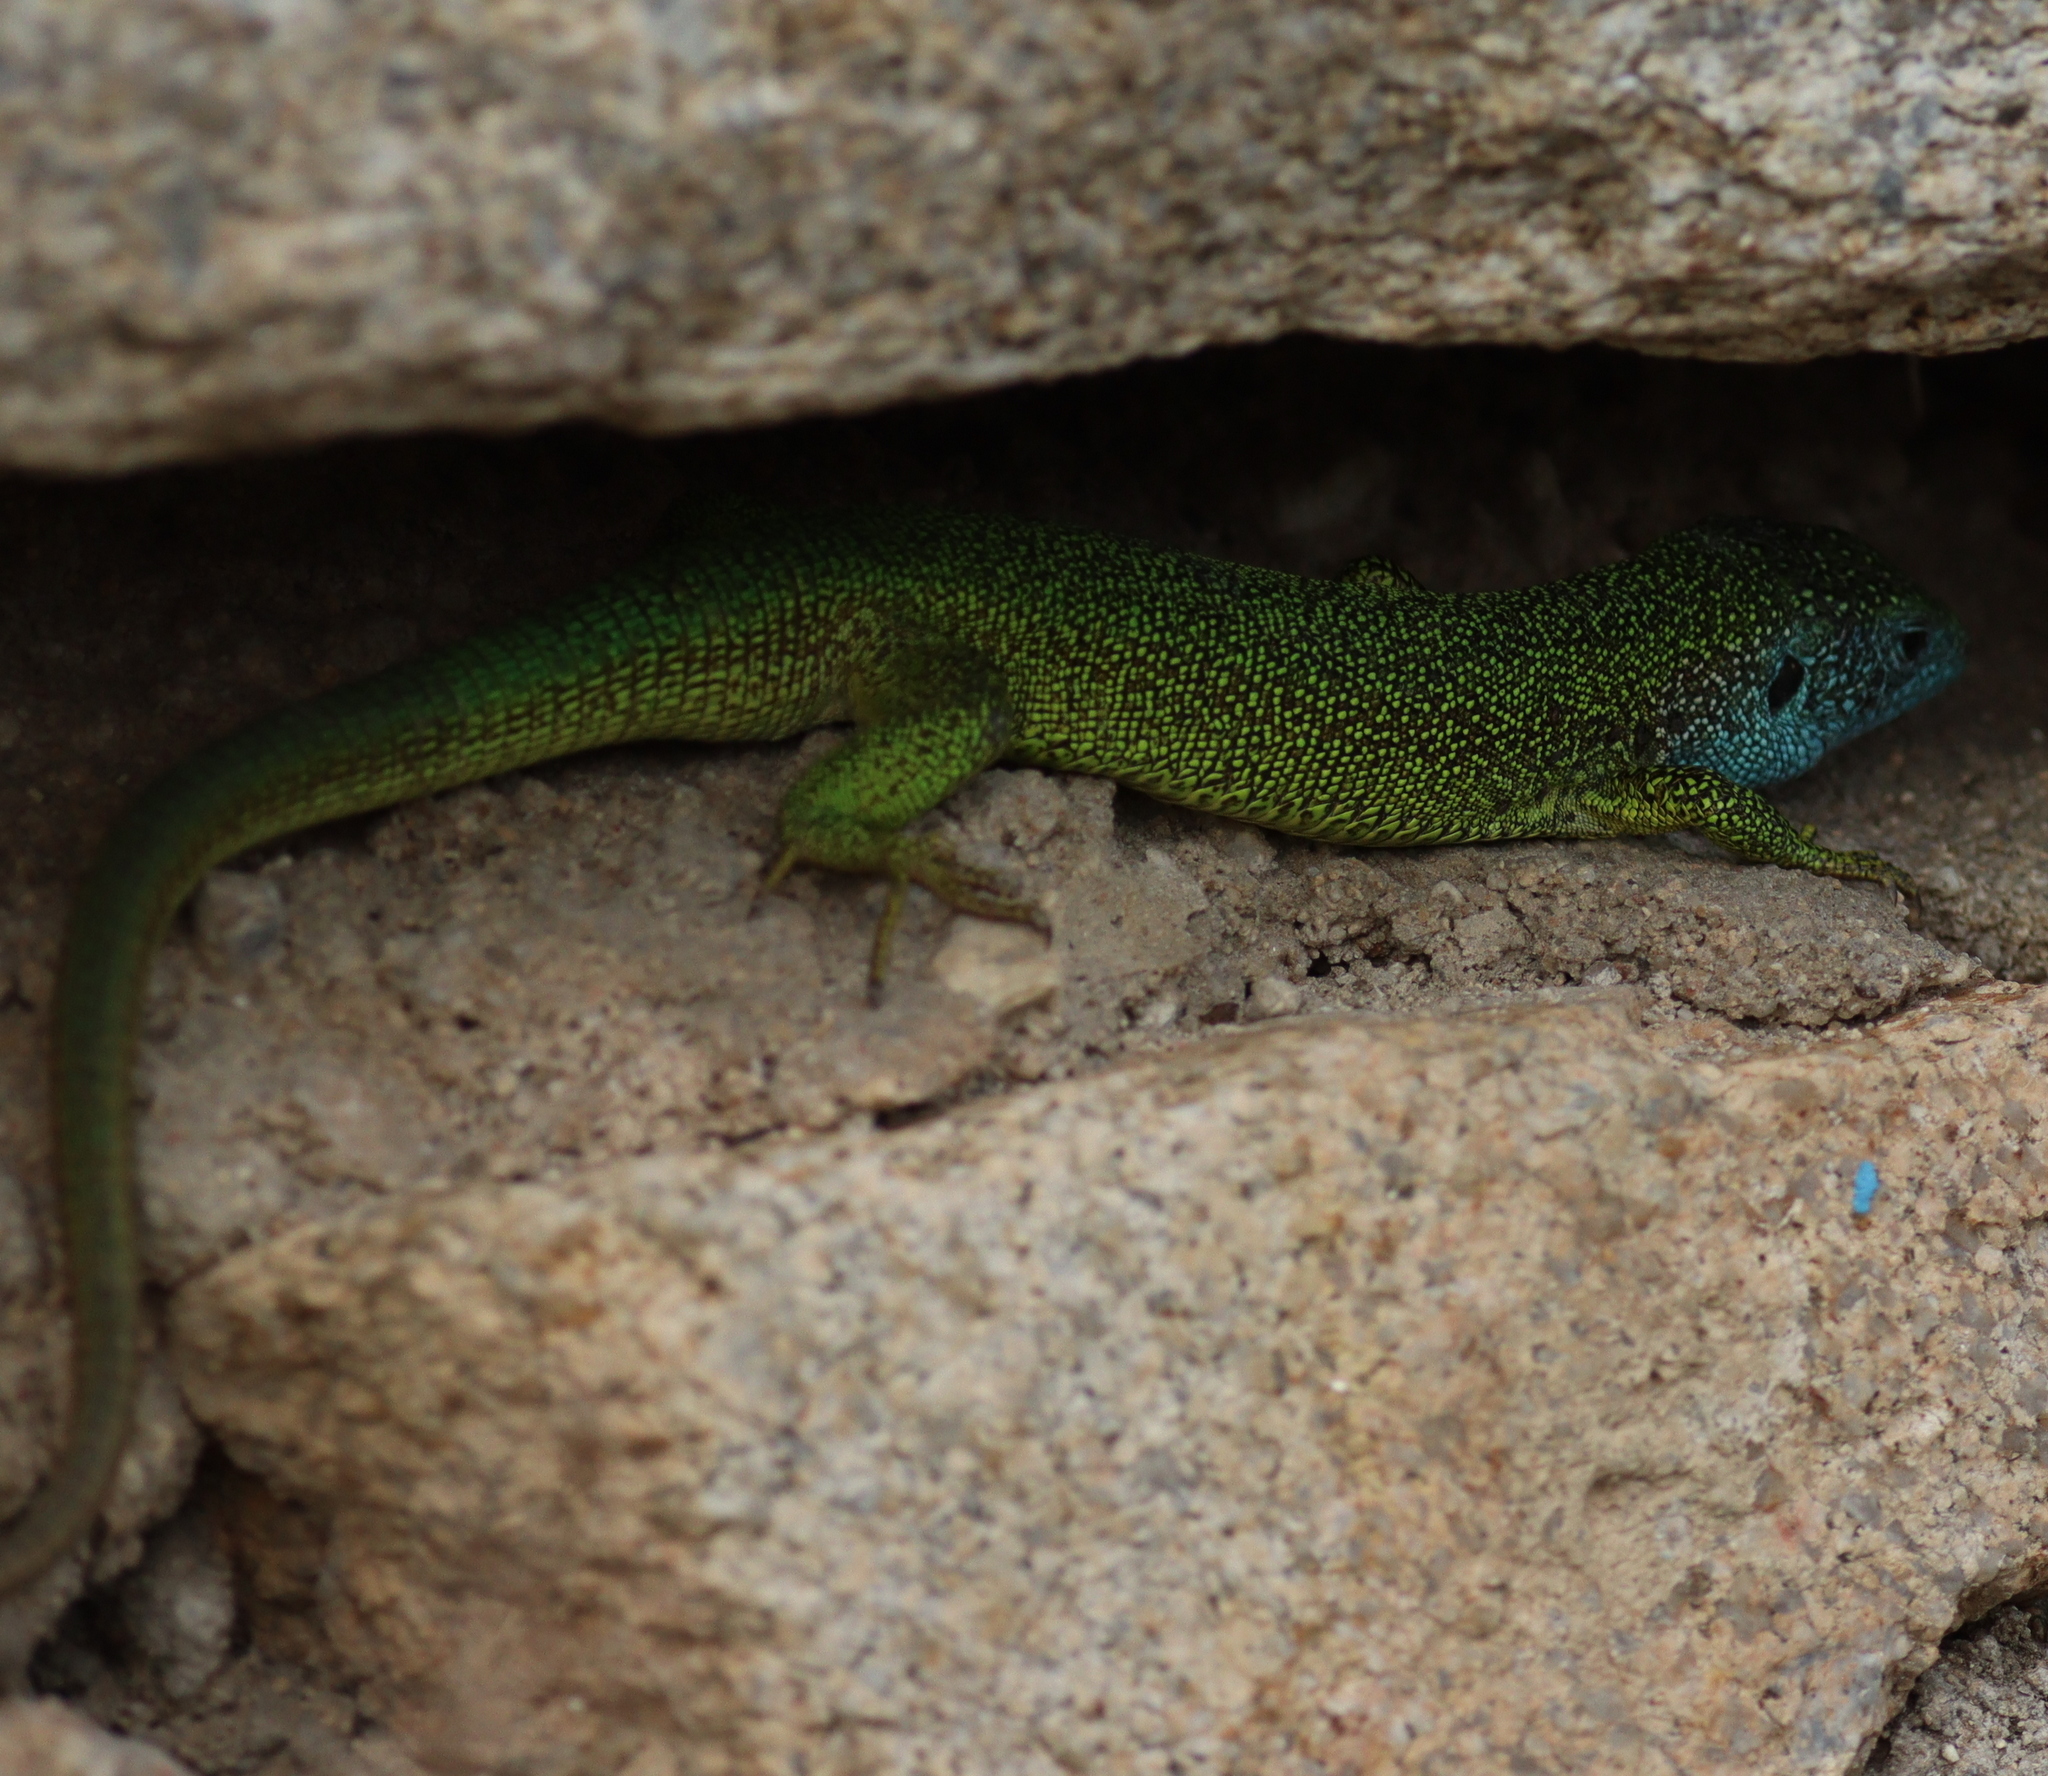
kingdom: Animalia
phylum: Chordata
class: Squamata
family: Lacertidae
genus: Lacerta
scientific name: Lacerta viridis
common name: European green lizard
